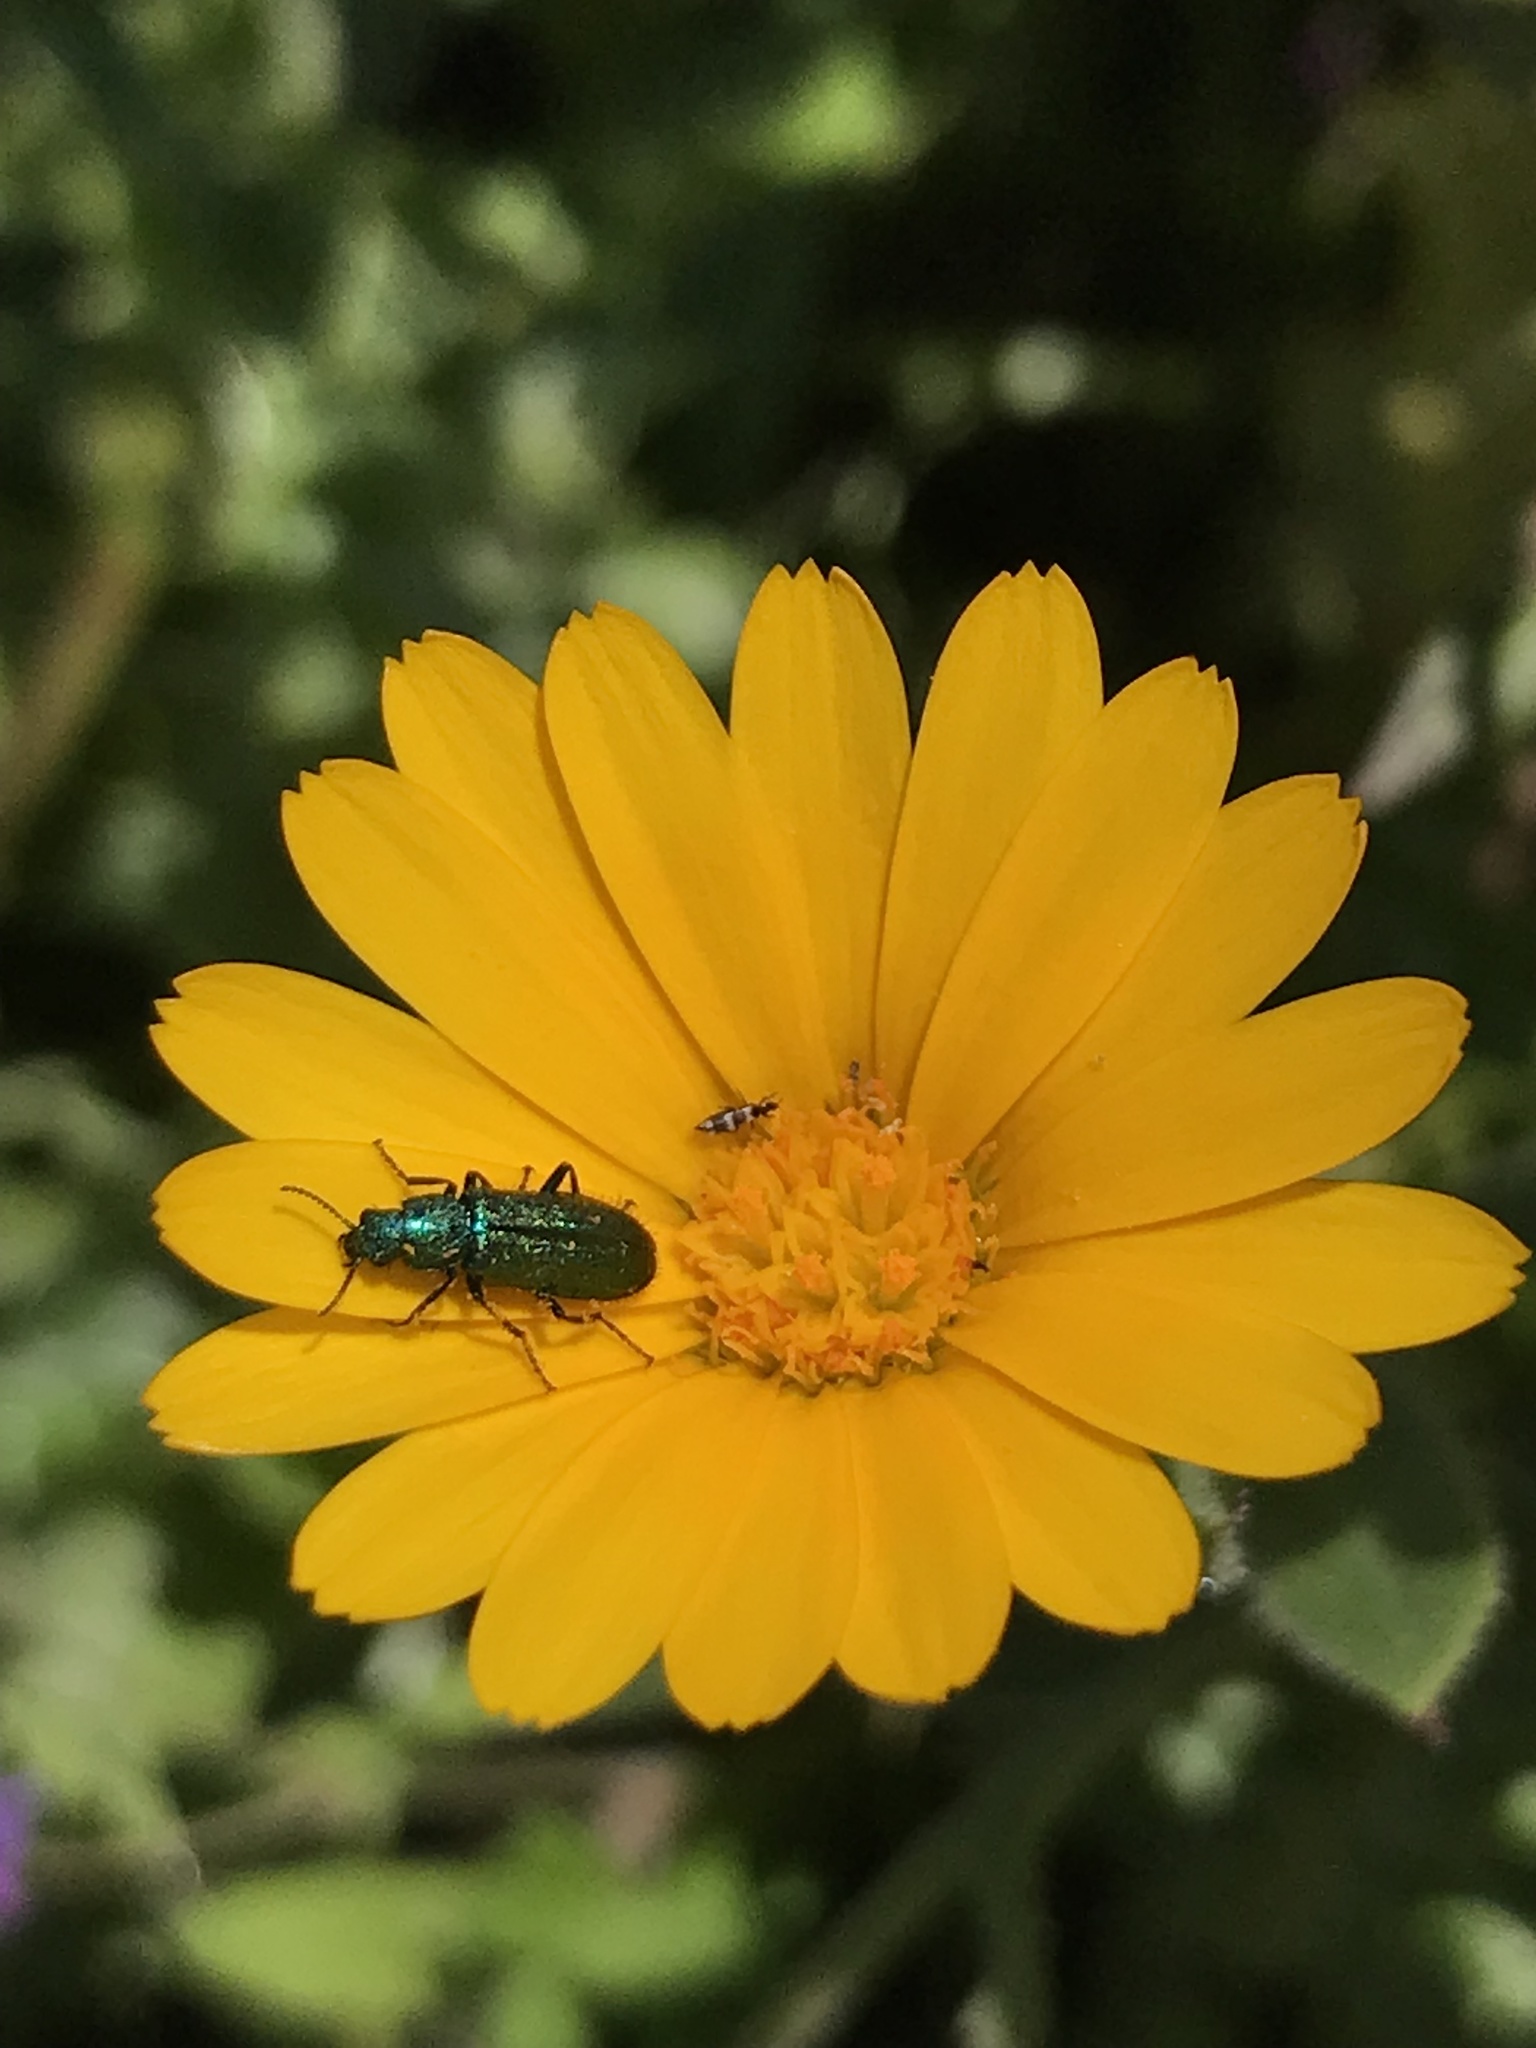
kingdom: Animalia
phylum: Arthropoda
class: Insecta
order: Coleoptera
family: Dasytidae
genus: Psilothrix
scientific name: Psilothrix viridicoerulea
